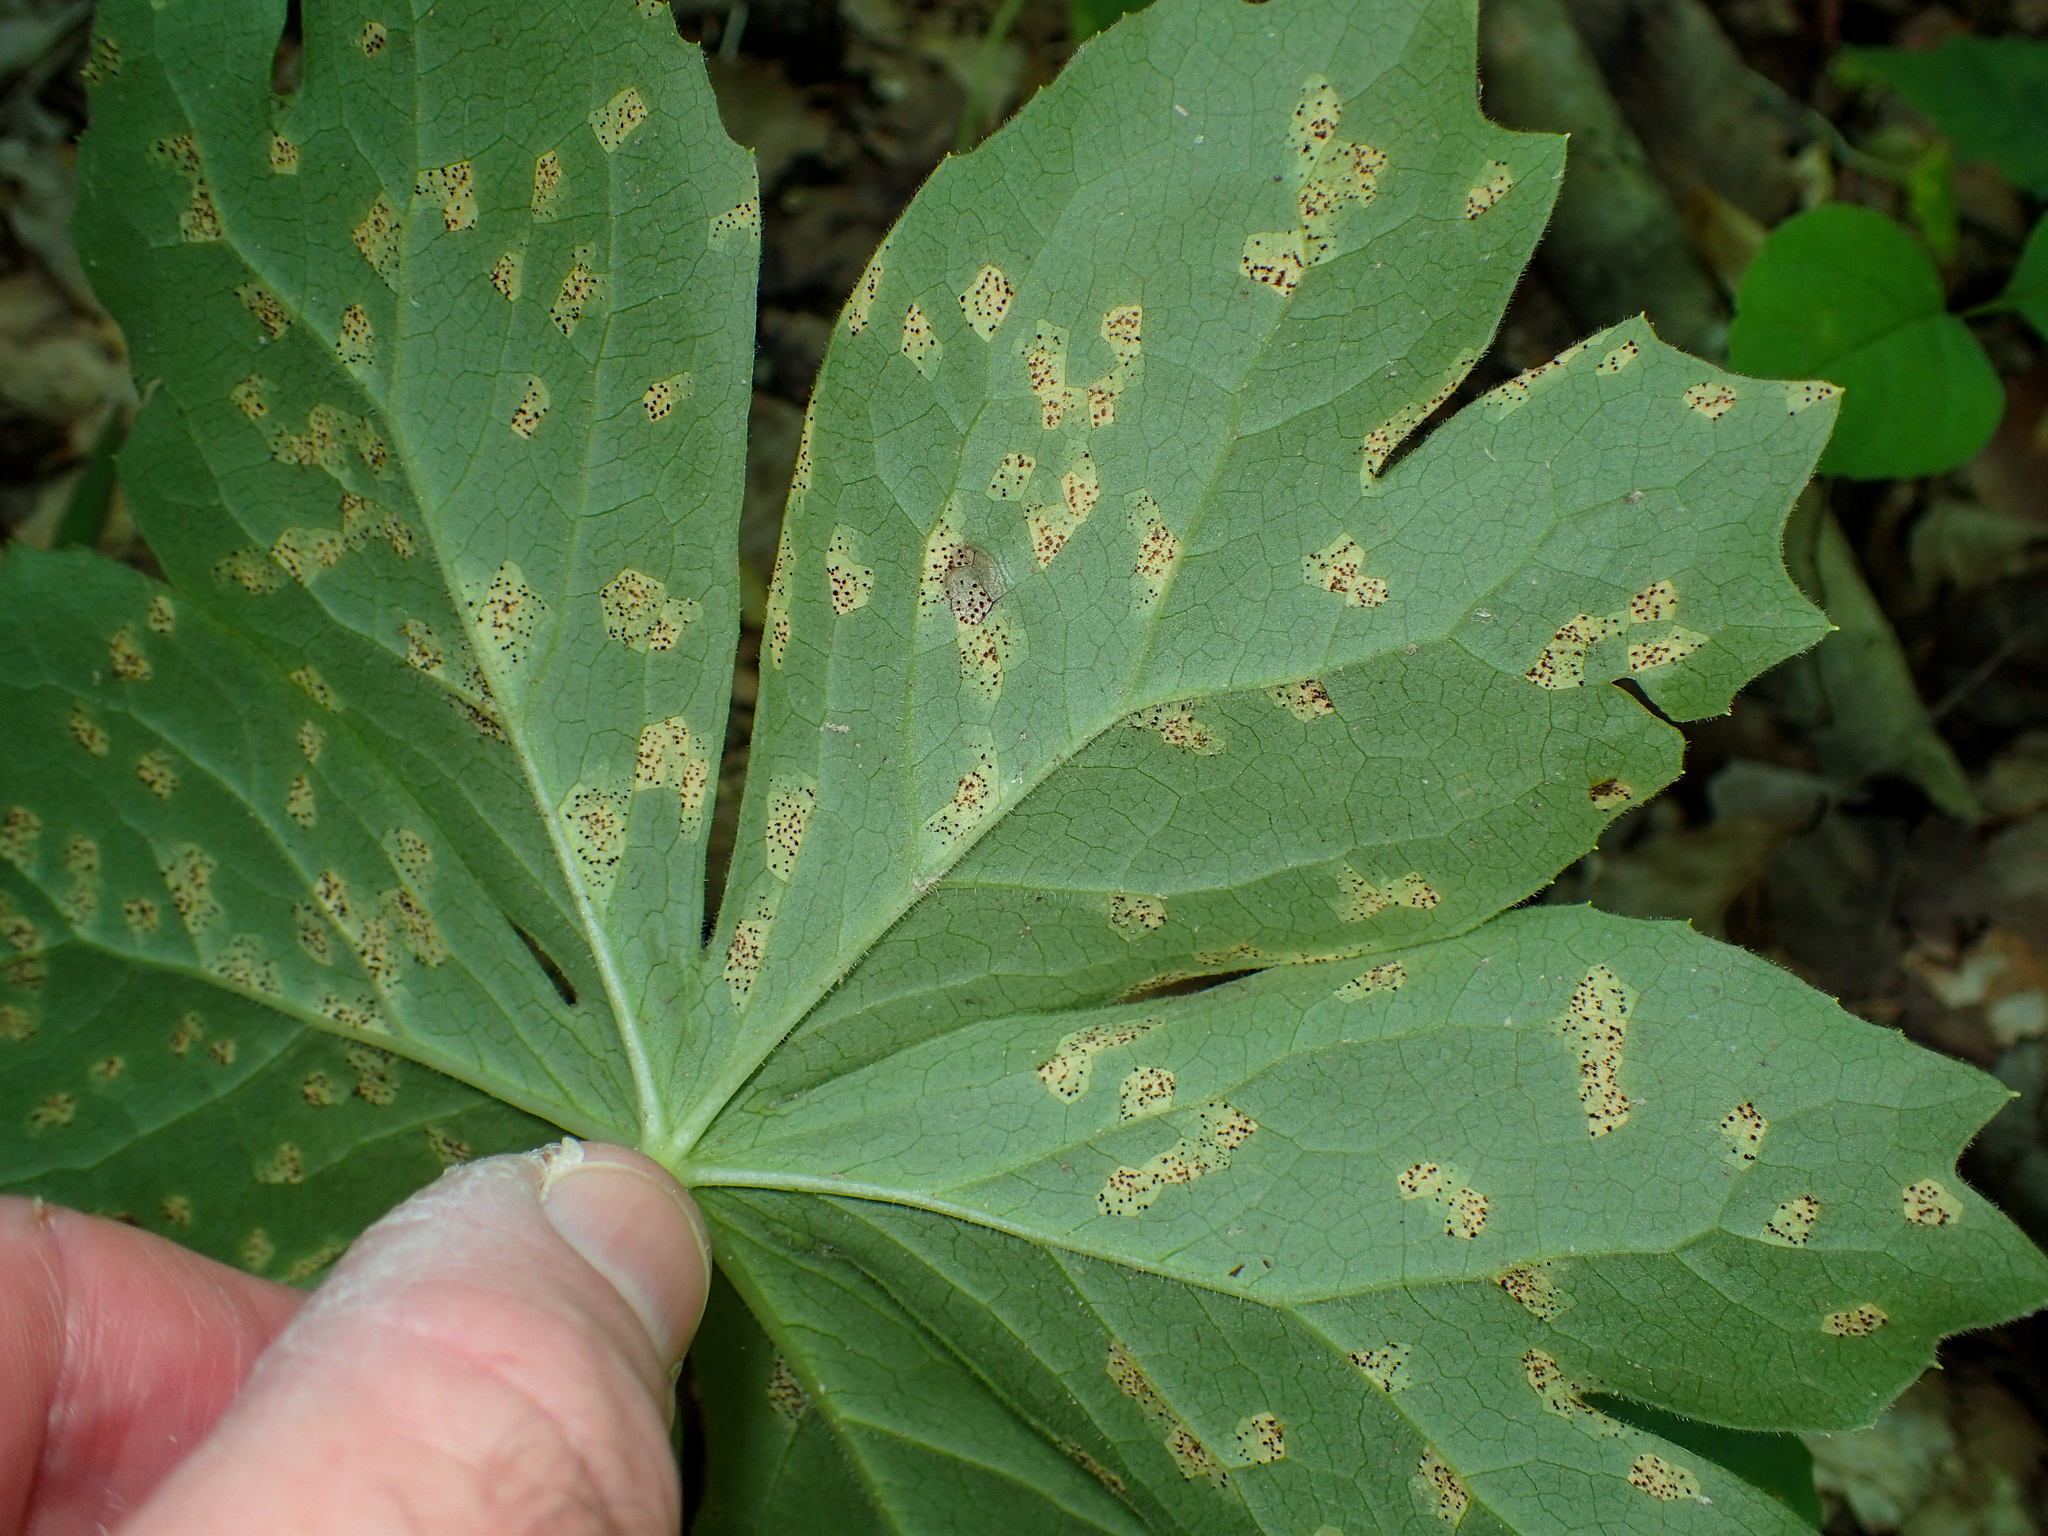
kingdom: Plantae
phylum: Tracheophyta
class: Magnoliopsida
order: Ranunculales
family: Berberidaceae
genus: Podophyllum
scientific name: Podophyllum peltatum
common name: Wild mandrake
